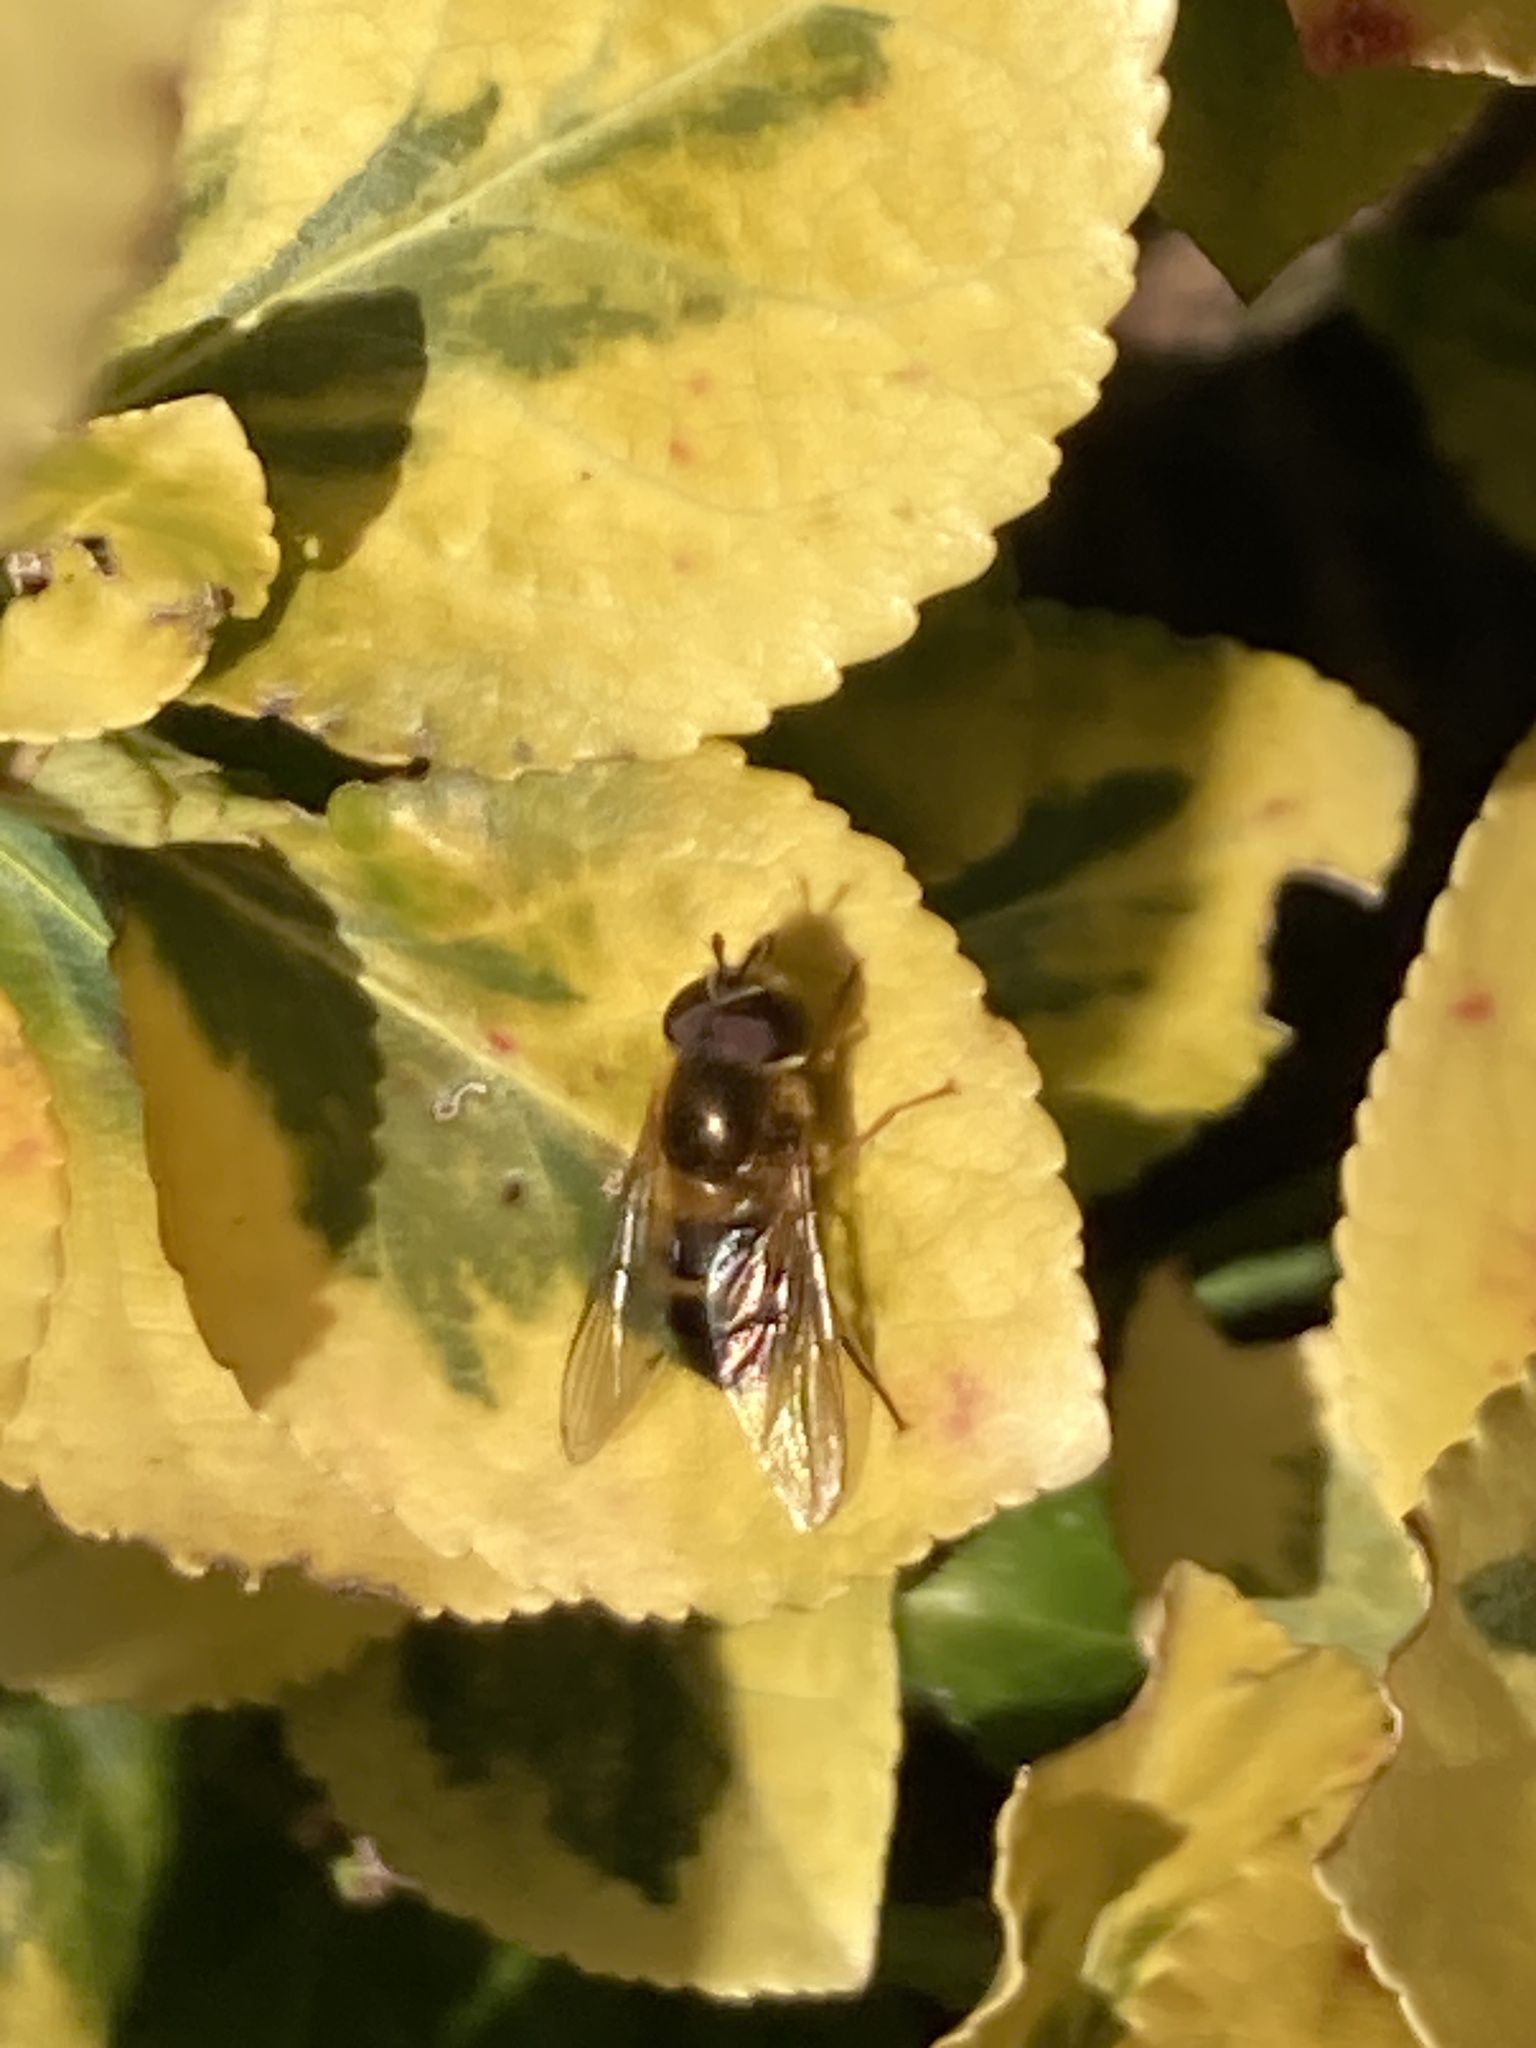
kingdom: Animalia
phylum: Arthropoda
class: Insecta
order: Diptera
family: Syrphidae
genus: Epistrophe
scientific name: Epistrophe eligans
